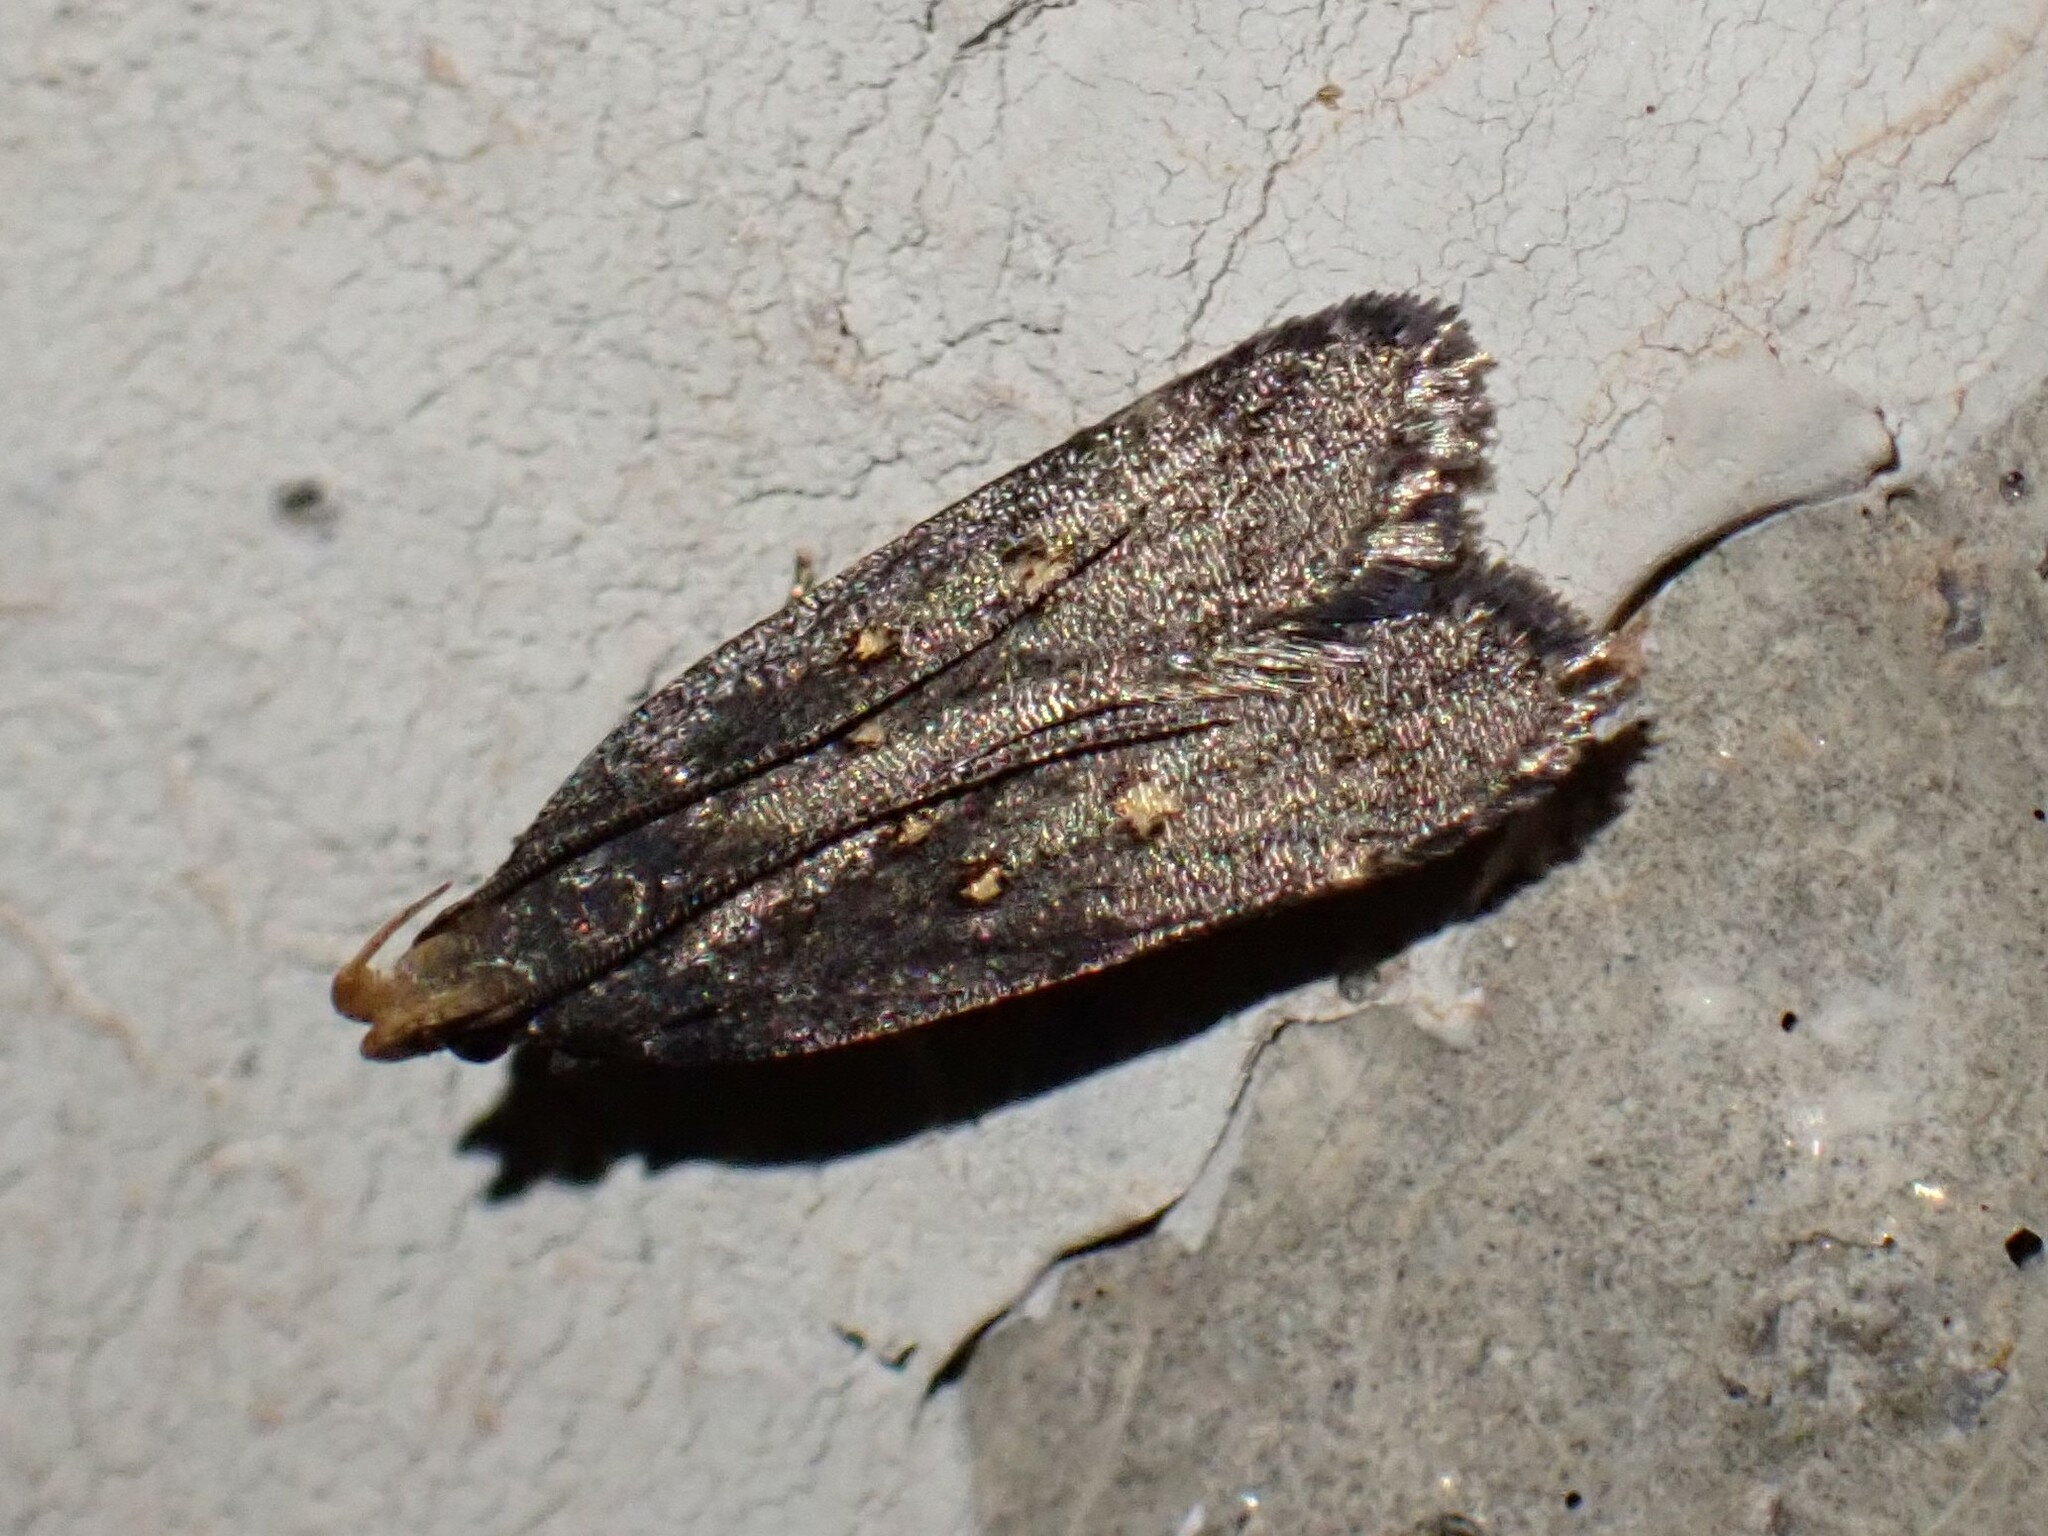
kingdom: Animalia
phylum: Arthropoda
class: Insecta
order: Lepidoptera
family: Gelechiidae
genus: Dichomeris
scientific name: Dichomeris agonia
